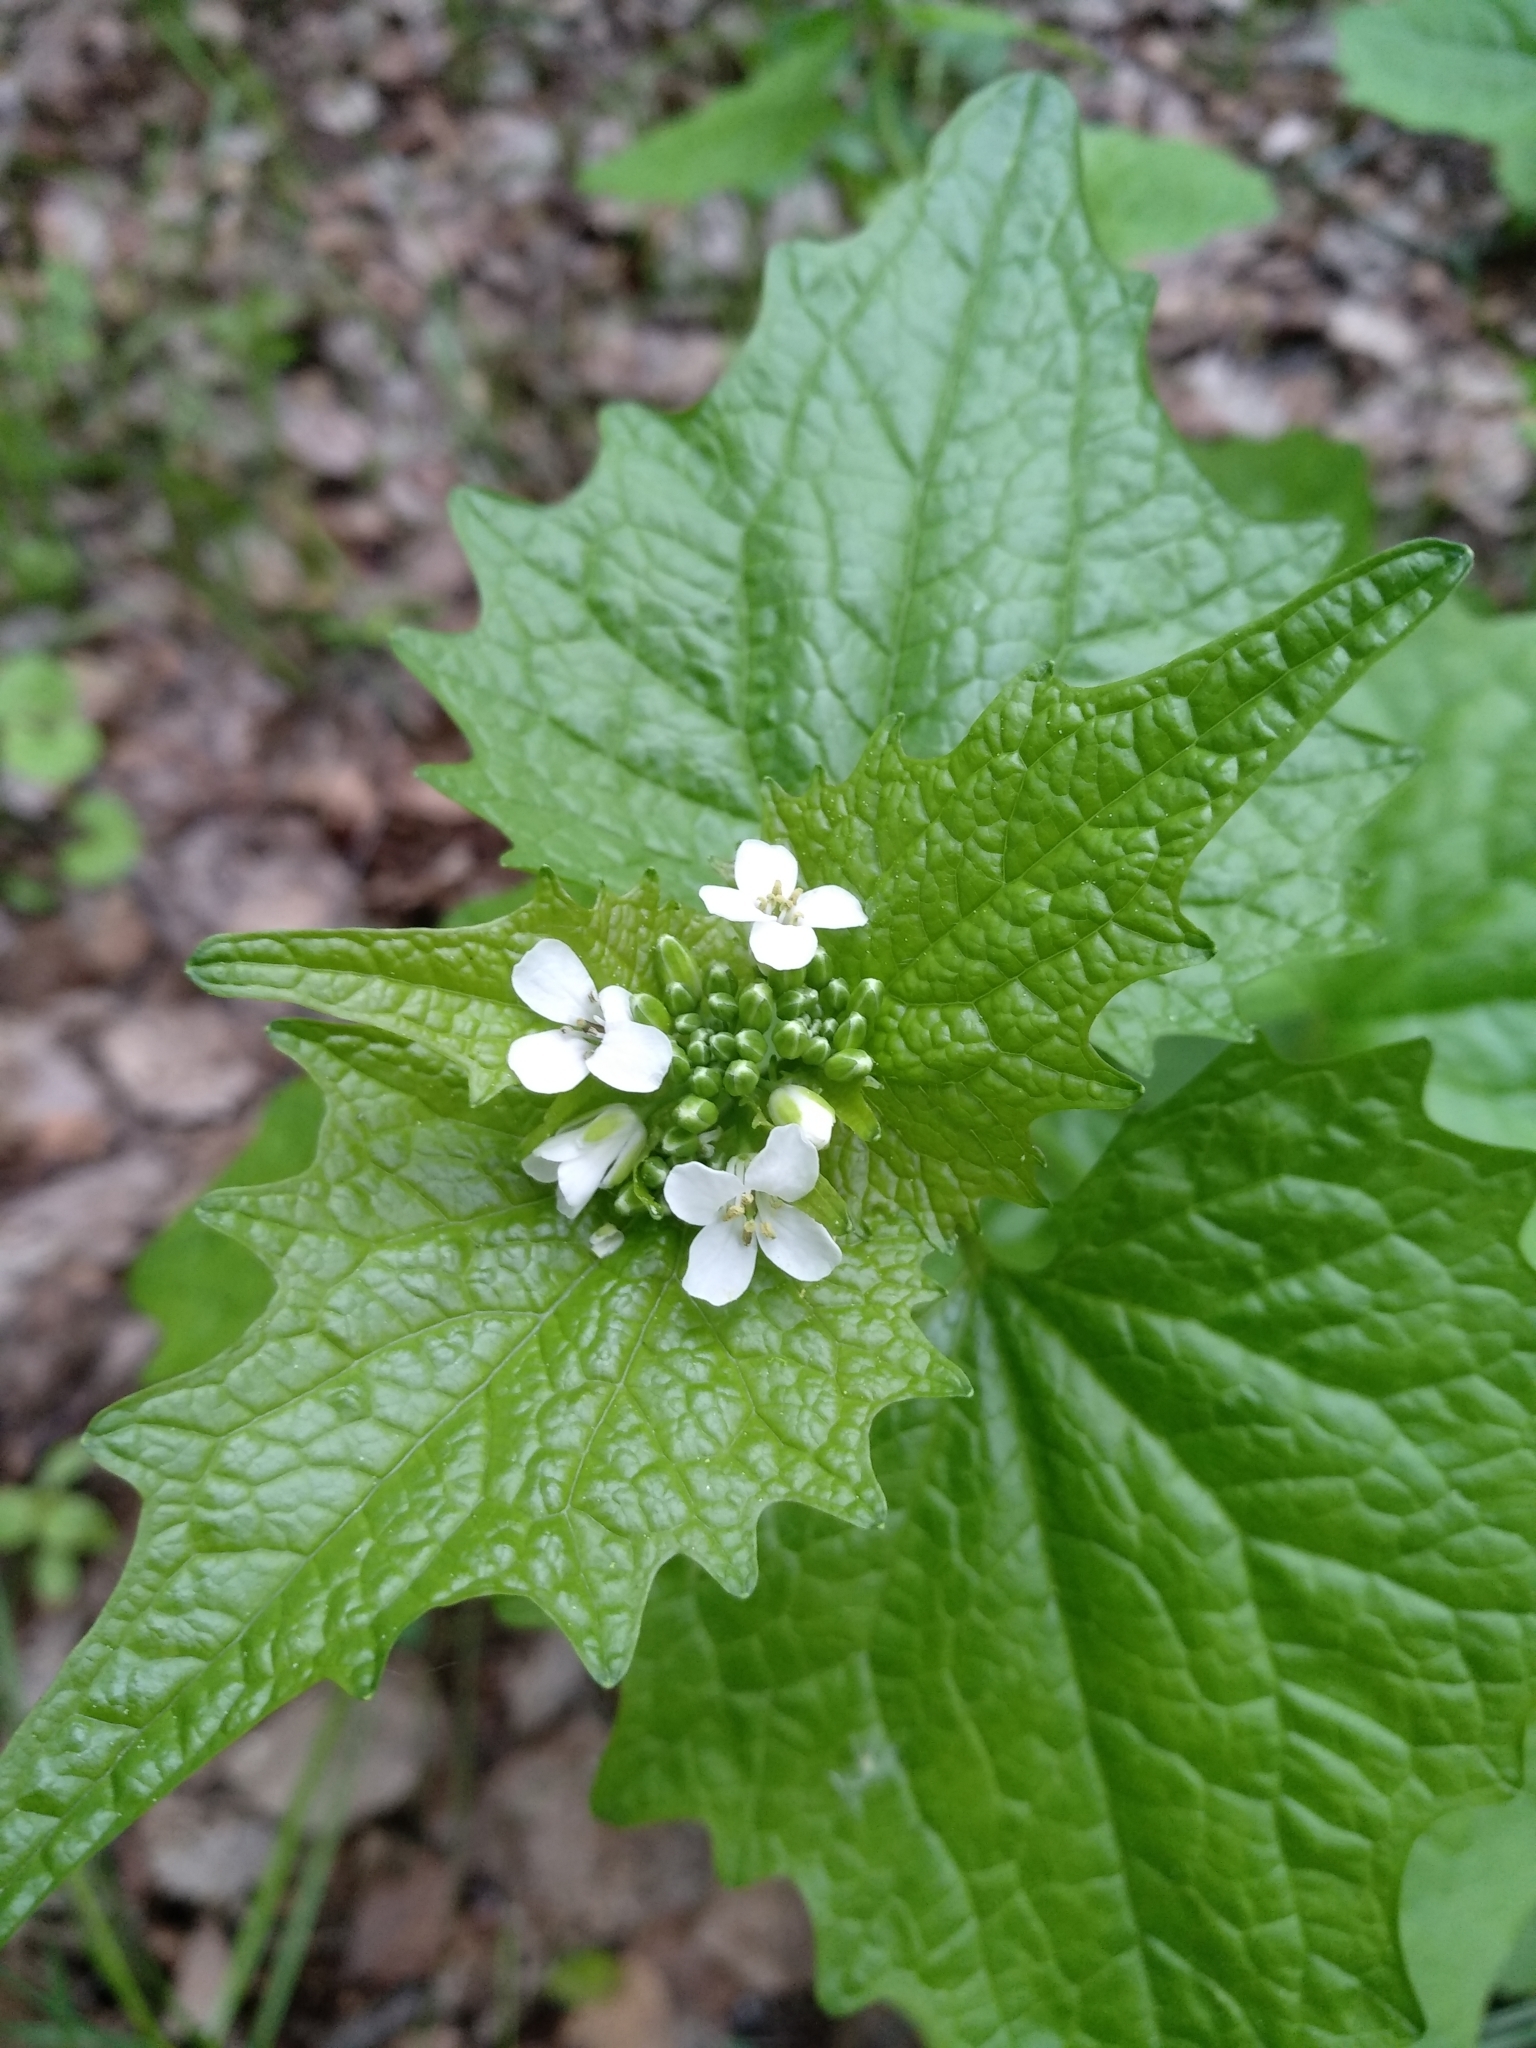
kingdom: Plantae
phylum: Tracheophyta
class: Magnoliopsida
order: Brassicales
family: Brassicaceae
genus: Alliaria
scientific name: Alliaria petiolata
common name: Garlic mustard
